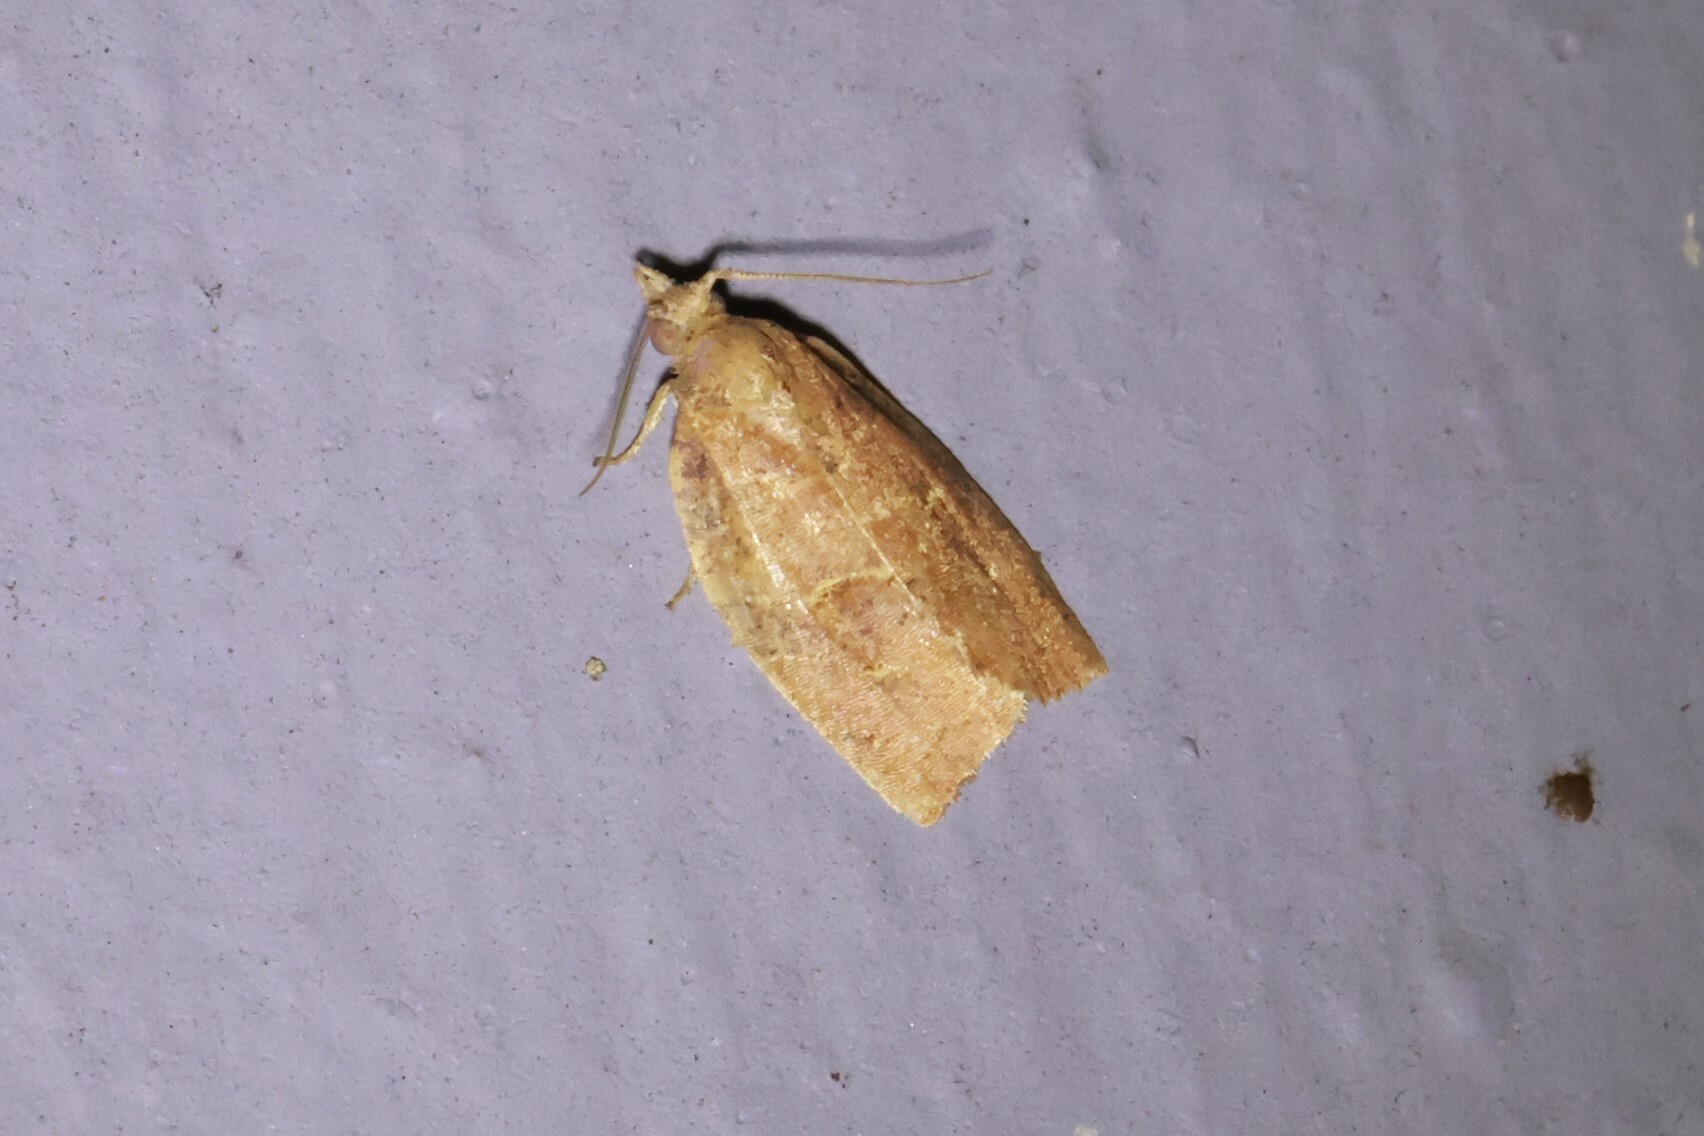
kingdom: Animalia
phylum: Arthropoda
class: Insecta
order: Lepidoptera
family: Tortricidae
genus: Pandemis
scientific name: Pandemis limitata
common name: Three-lined leafroller moth
